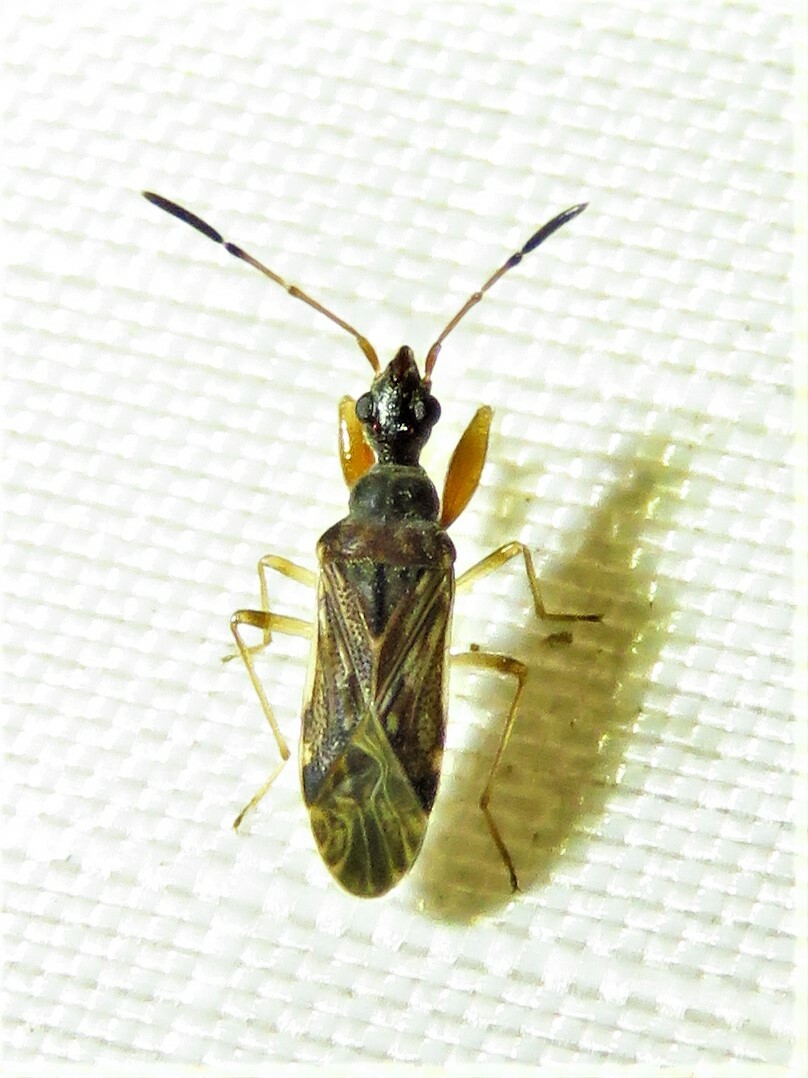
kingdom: Animalia
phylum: Arthropoda
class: Insecta
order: Hemiptera
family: Rhyparochromidae
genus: Heraeus
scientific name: Heraeus plebejus
